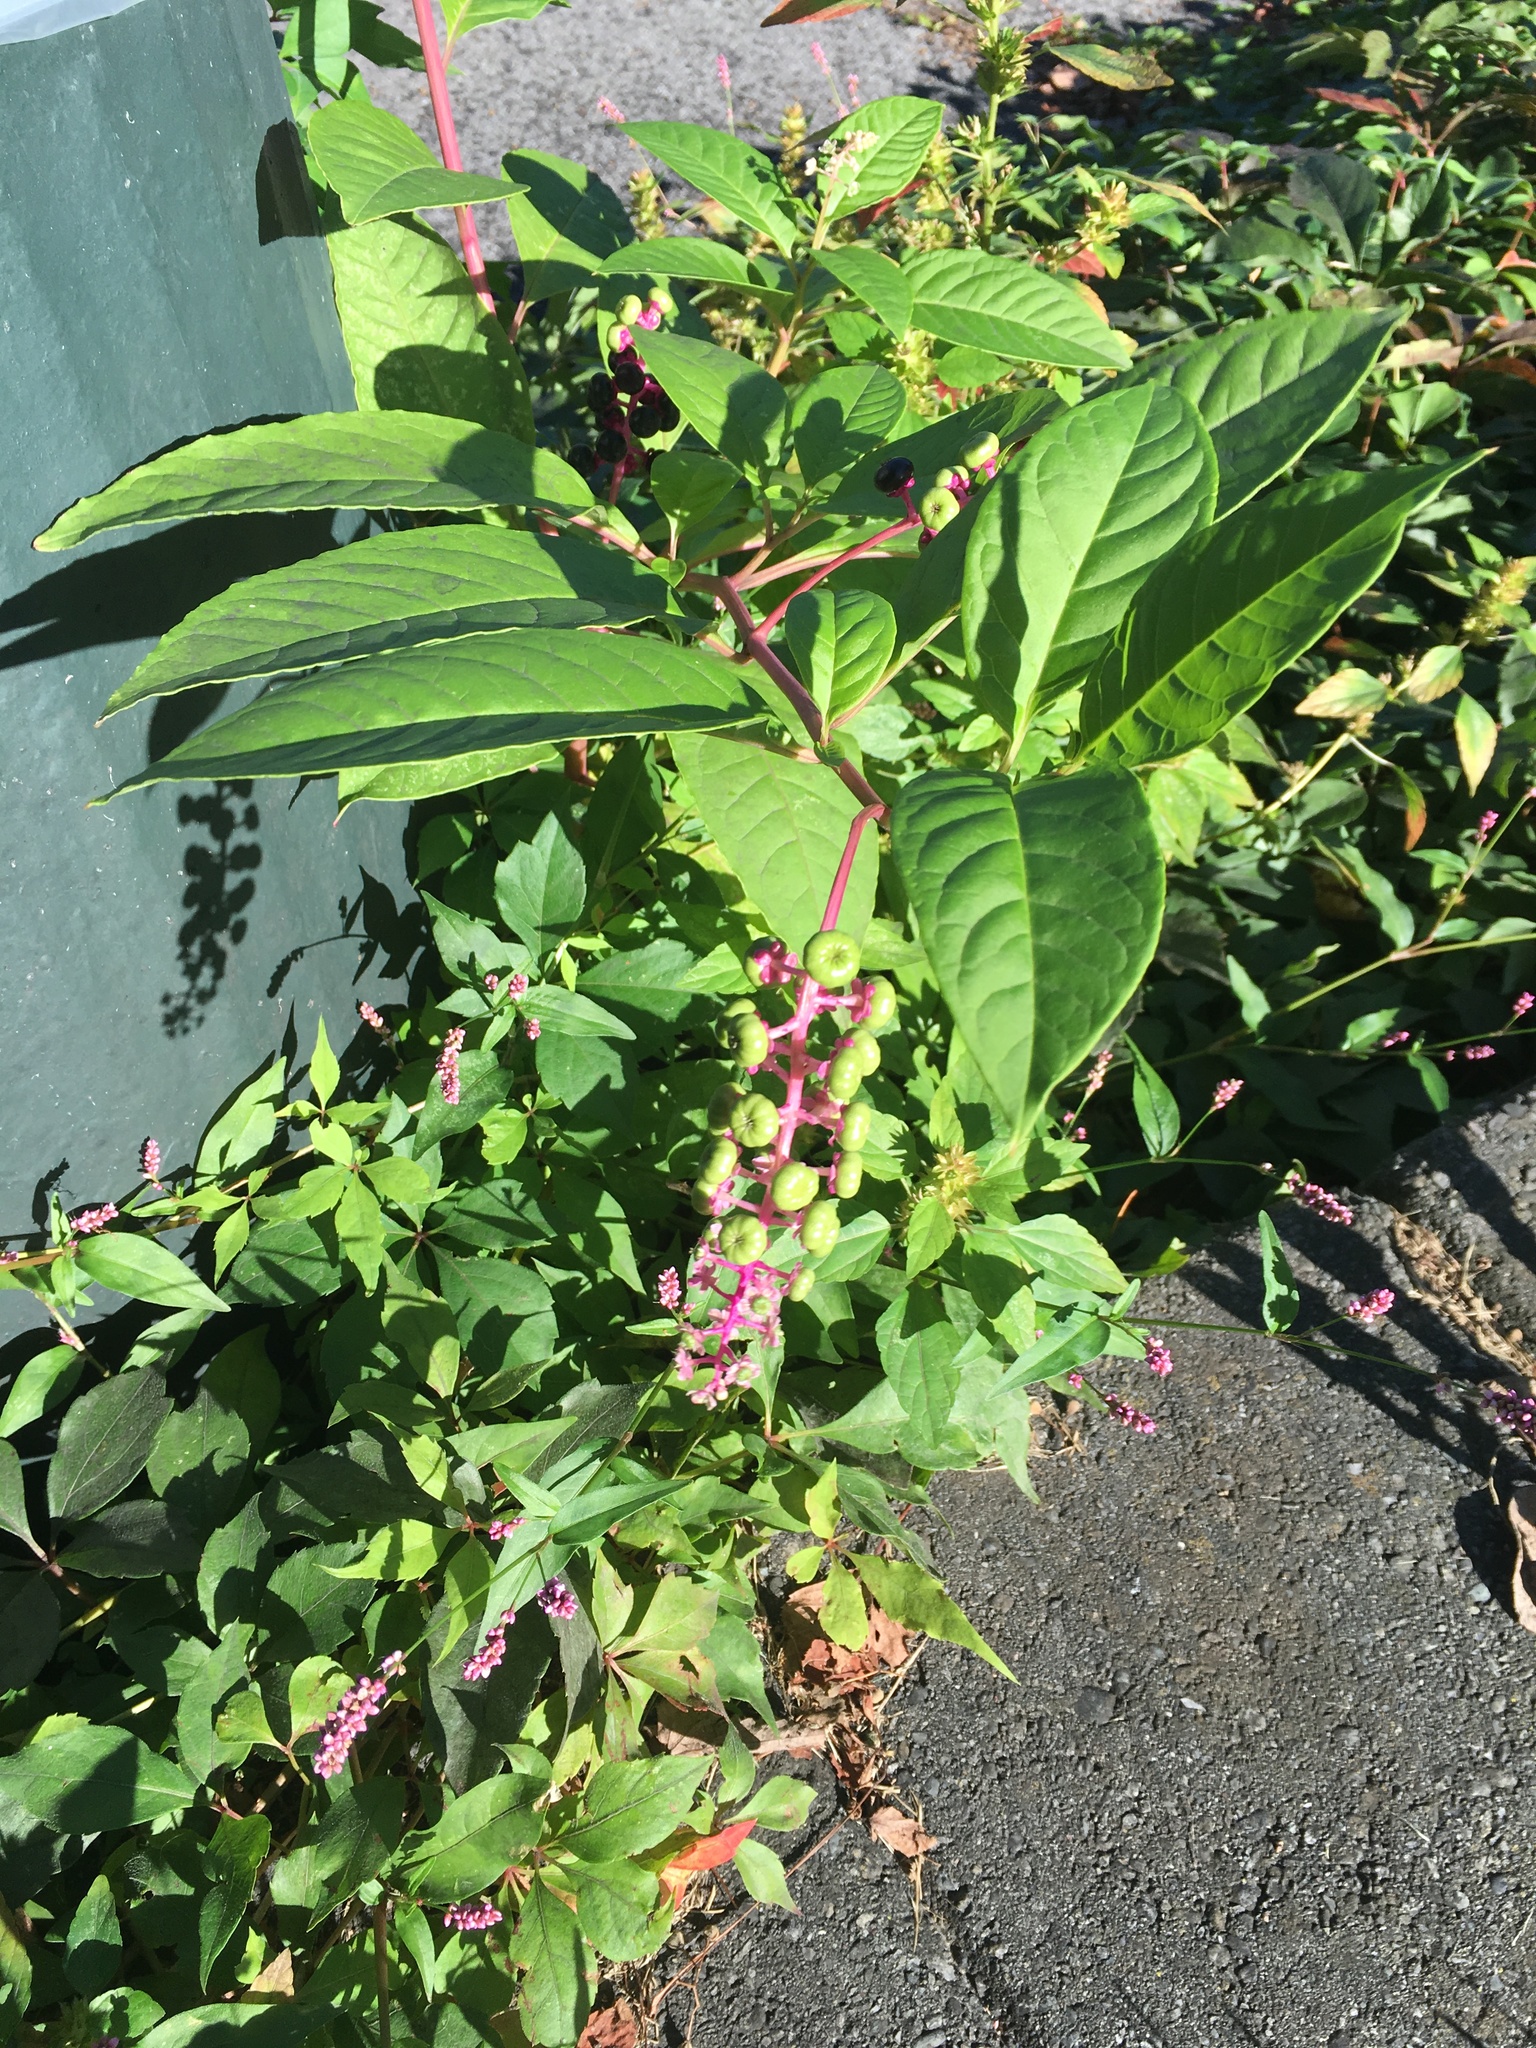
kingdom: Plantae
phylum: Tracheophyta
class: Magnoliopsida
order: Caryophyllales
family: Phytolaccaceae
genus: Phytolacca
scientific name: Phytolacca americana
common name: American pokeweed
